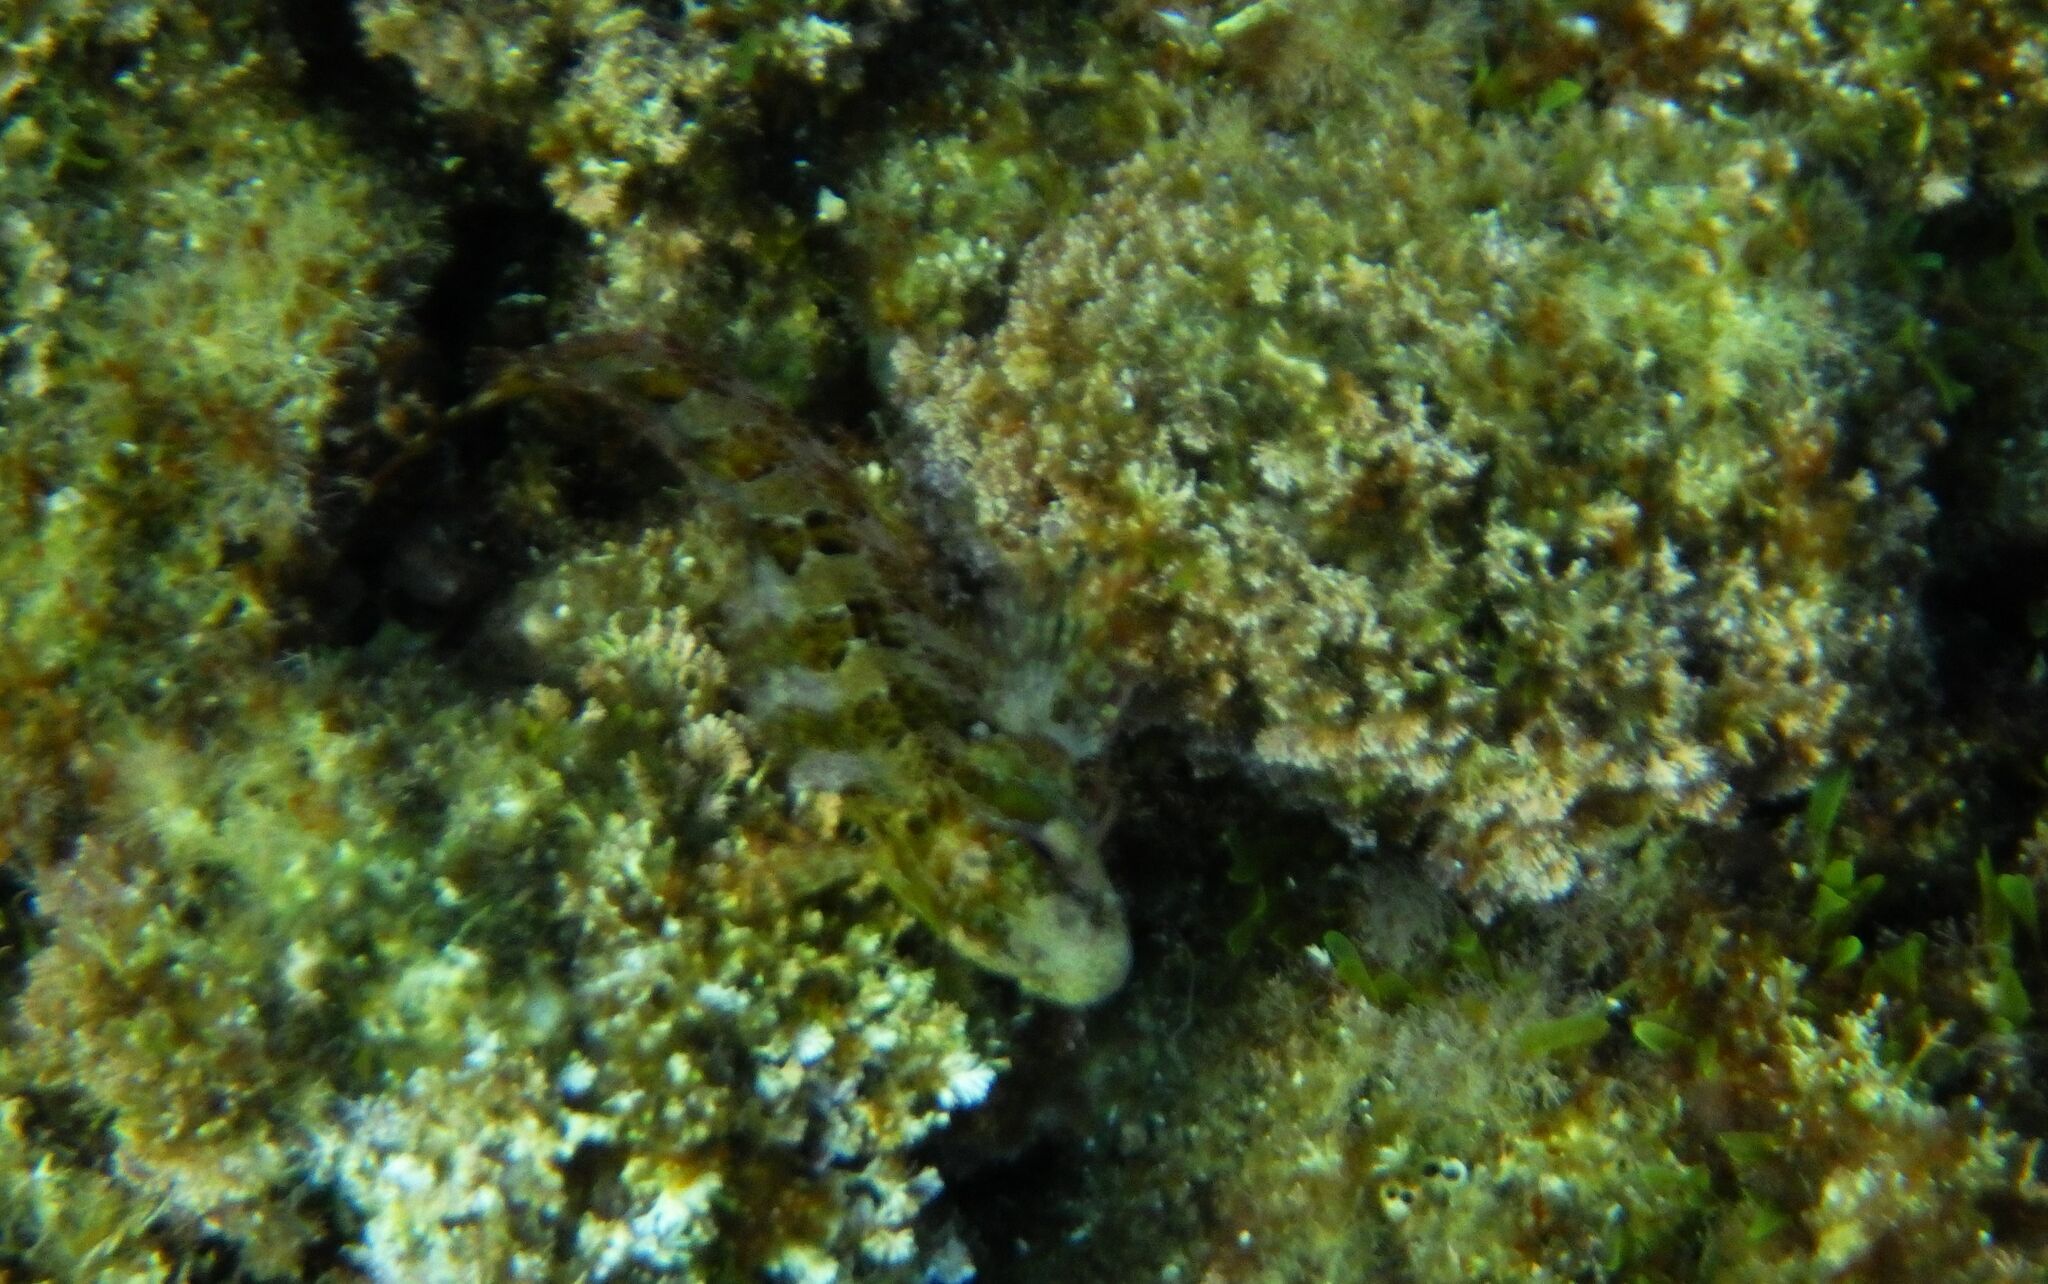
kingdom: Animalia
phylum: Chordata
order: Perciformes
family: Blenniidae
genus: Parablennius
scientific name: Parablennius gattorugine
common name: Tompot blenny
